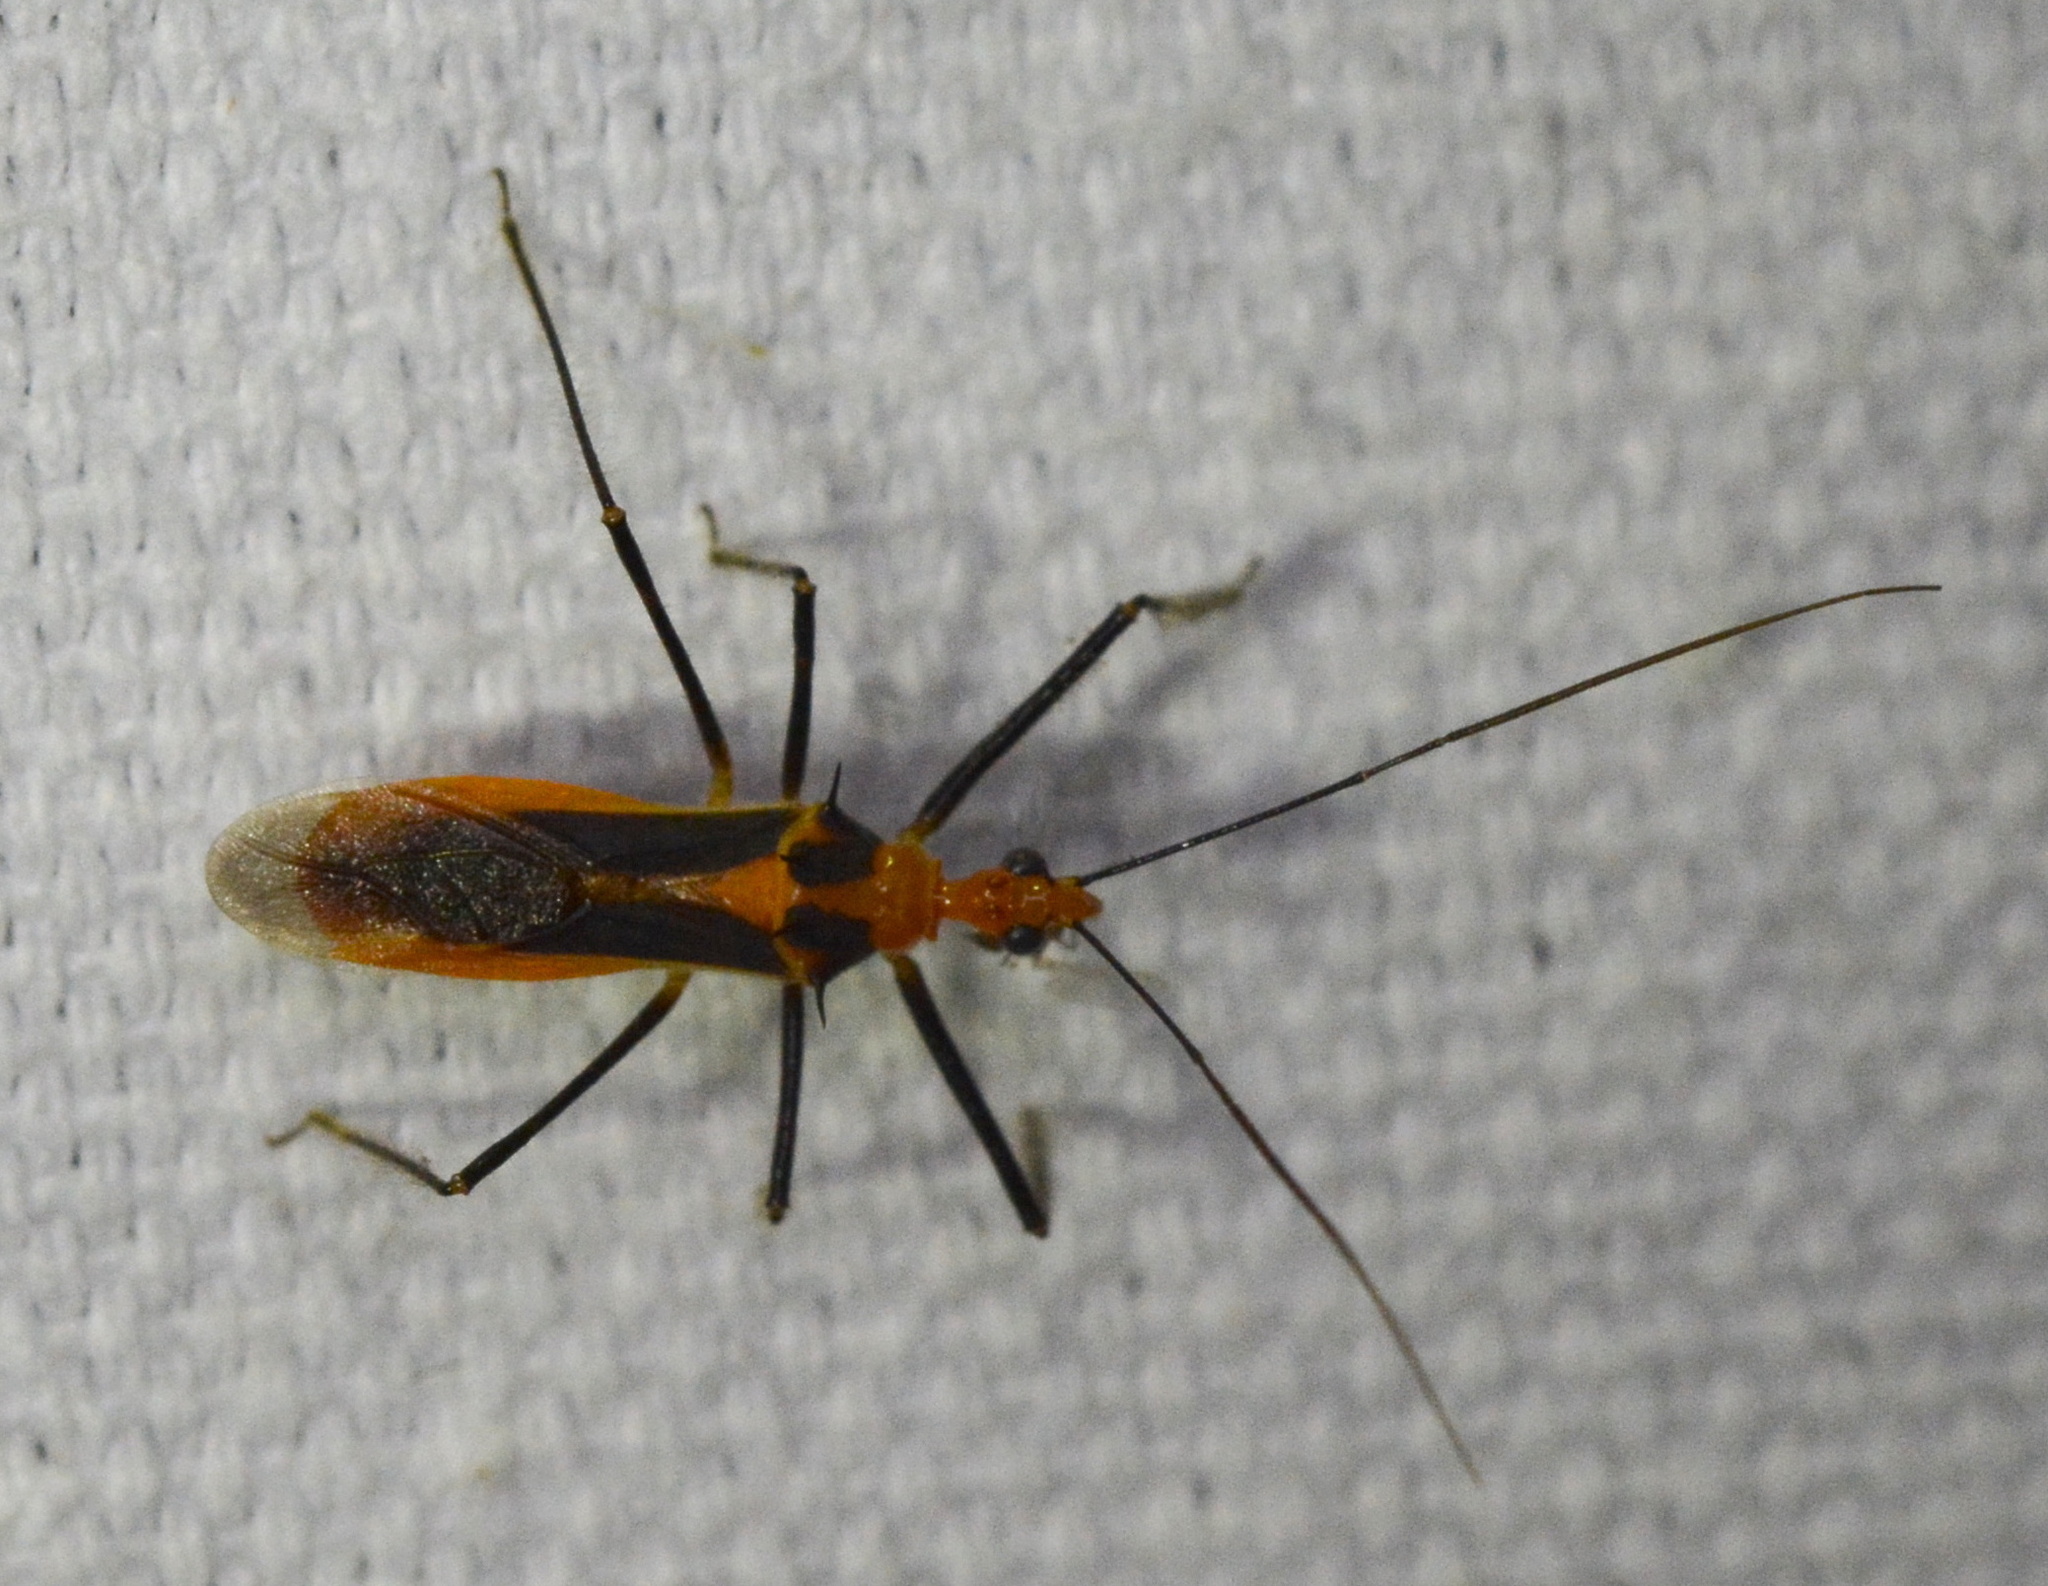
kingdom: Animalia
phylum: Arthropoda
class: Insecta
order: Hemiptera
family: Reduviidae
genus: Repipta
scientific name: Repipta taurus
